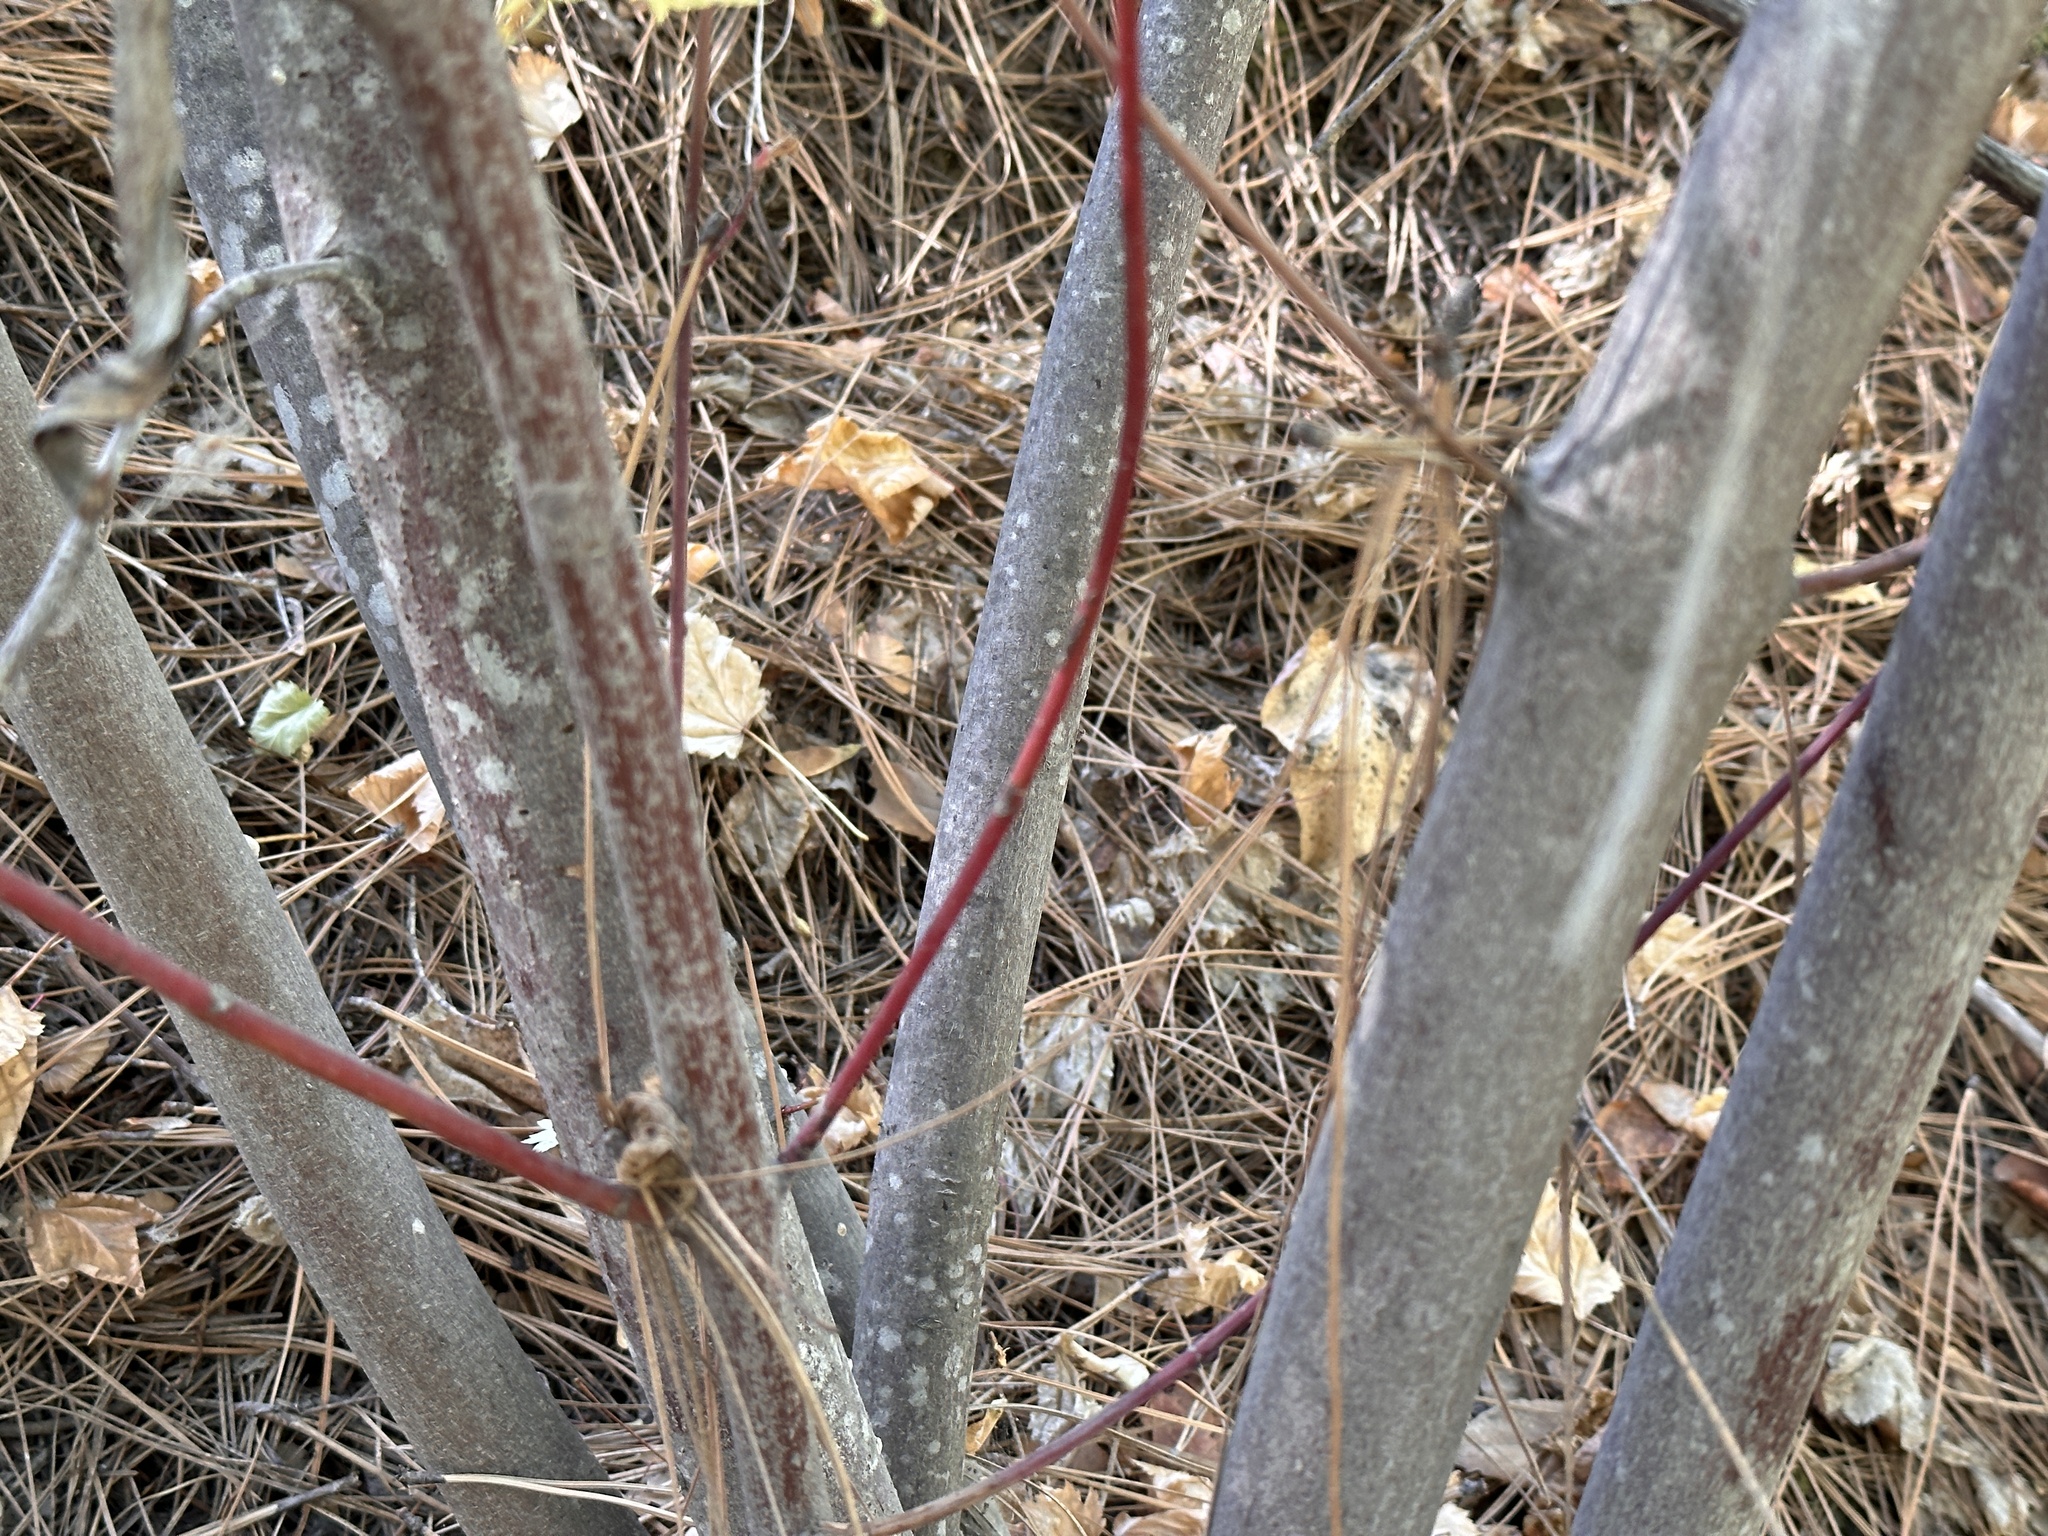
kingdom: Plantae
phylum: Tracheophyta
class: Magnoliopsida
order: Sapindales
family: Sapindaceae
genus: Acer
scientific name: Acer glabrum
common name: Rocky mountain maple
